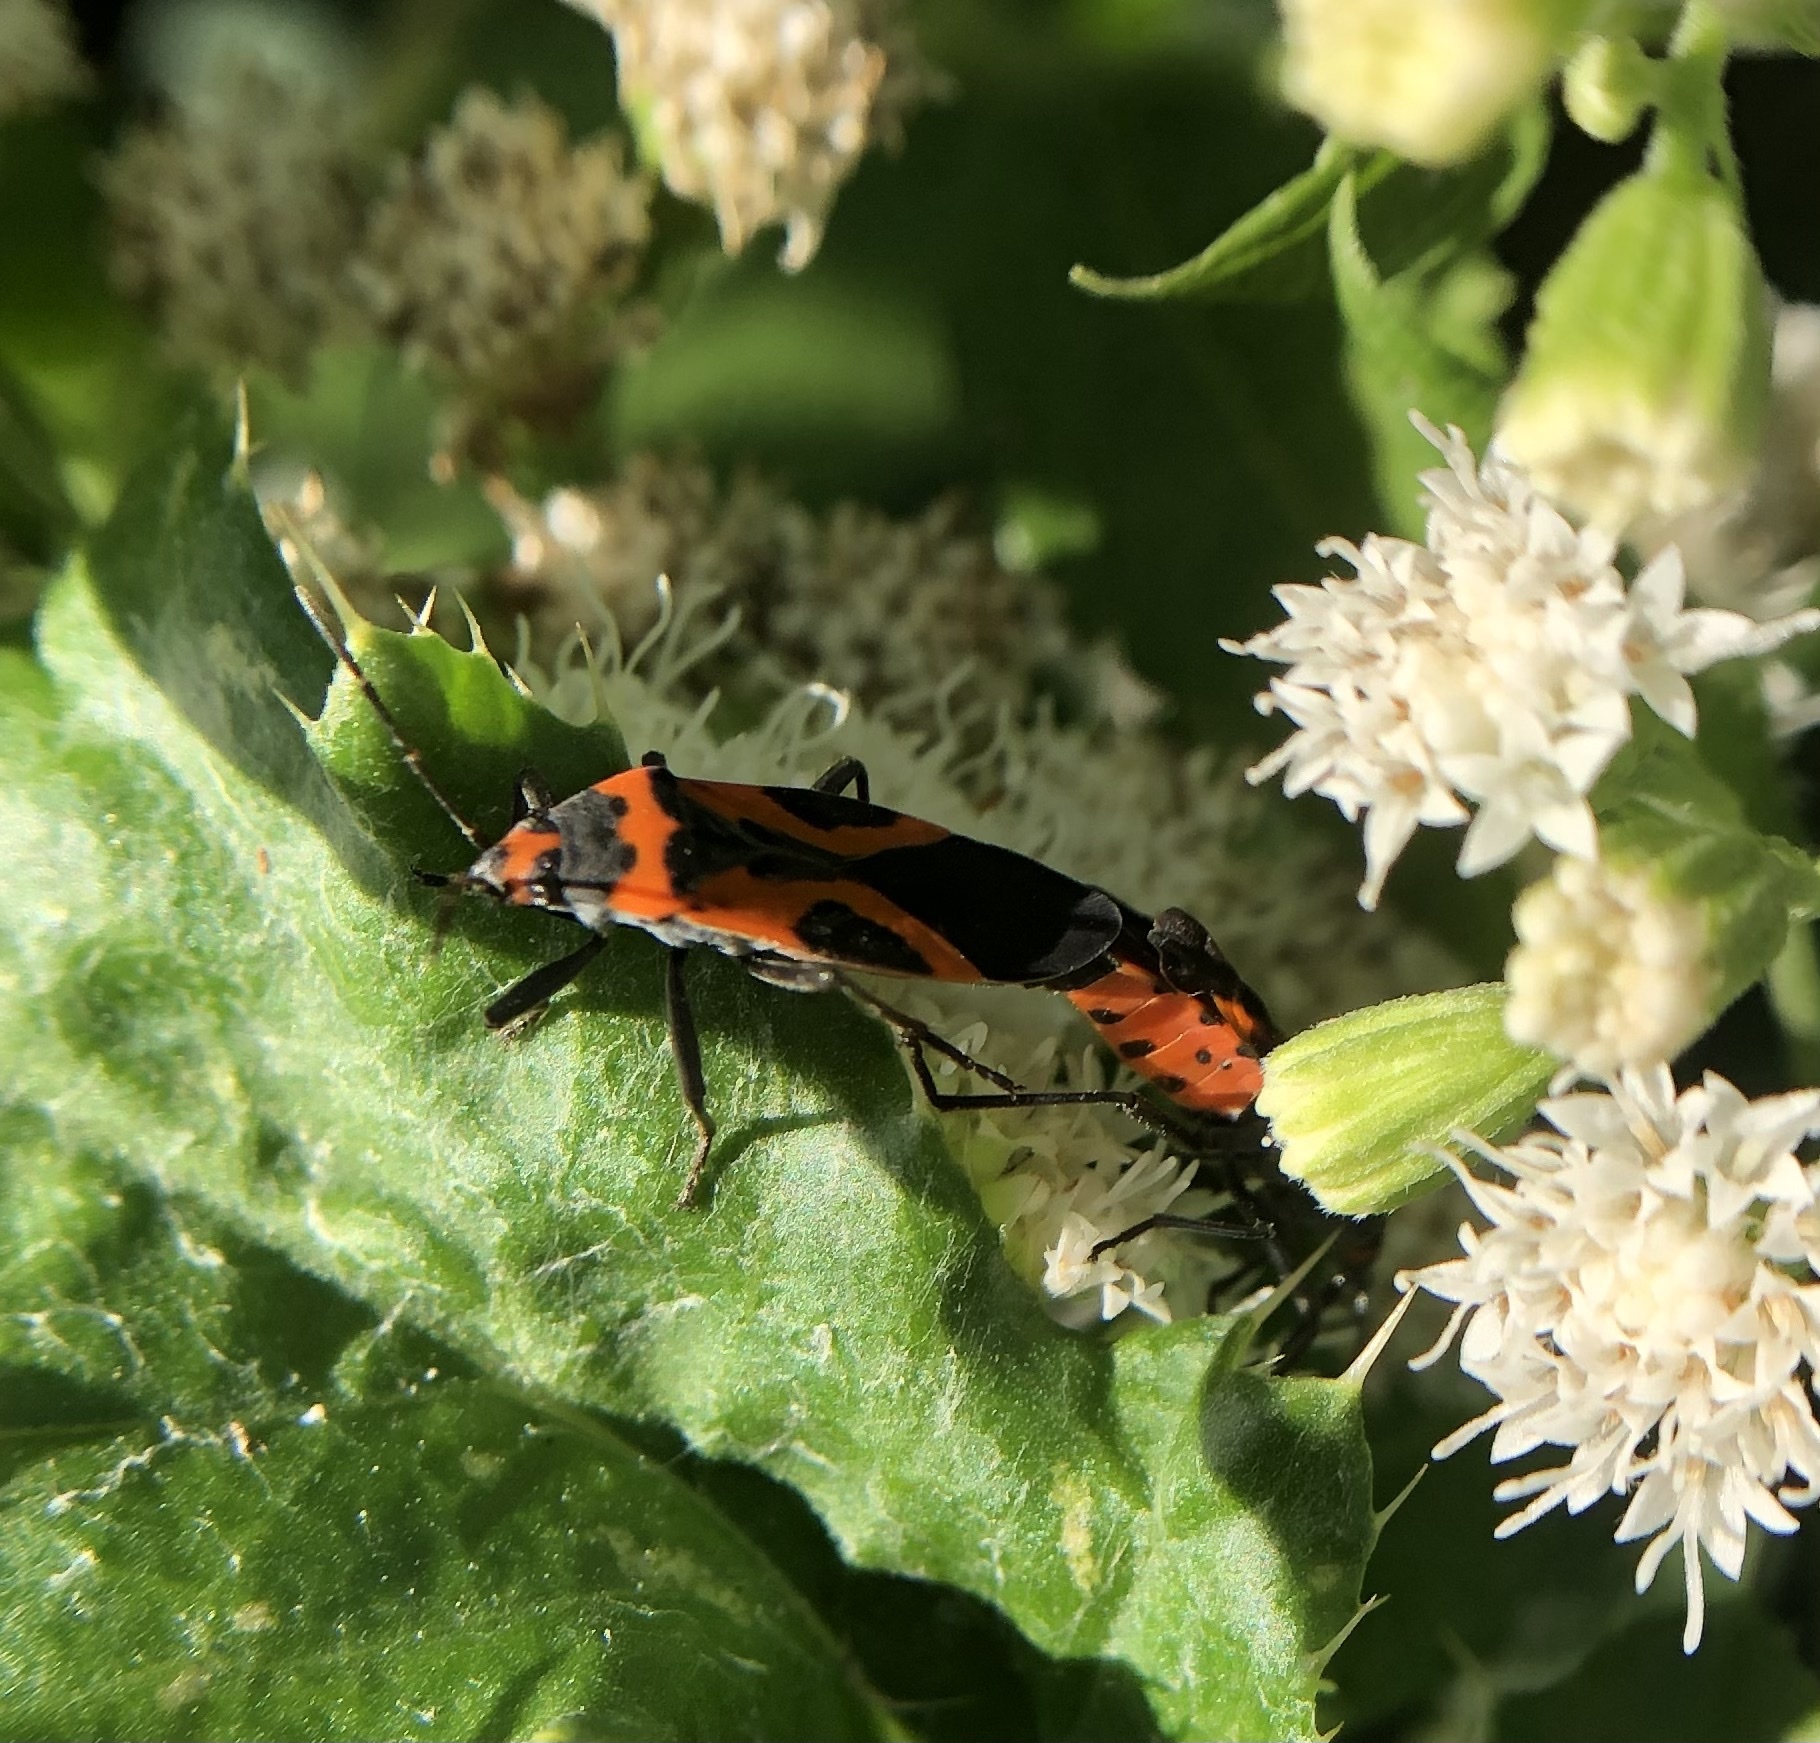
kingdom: Animalia
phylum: Arthropoda
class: Insecta
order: Hemiptera
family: Lygaeidae
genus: Lygaeus
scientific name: Lygaeus turcicus
